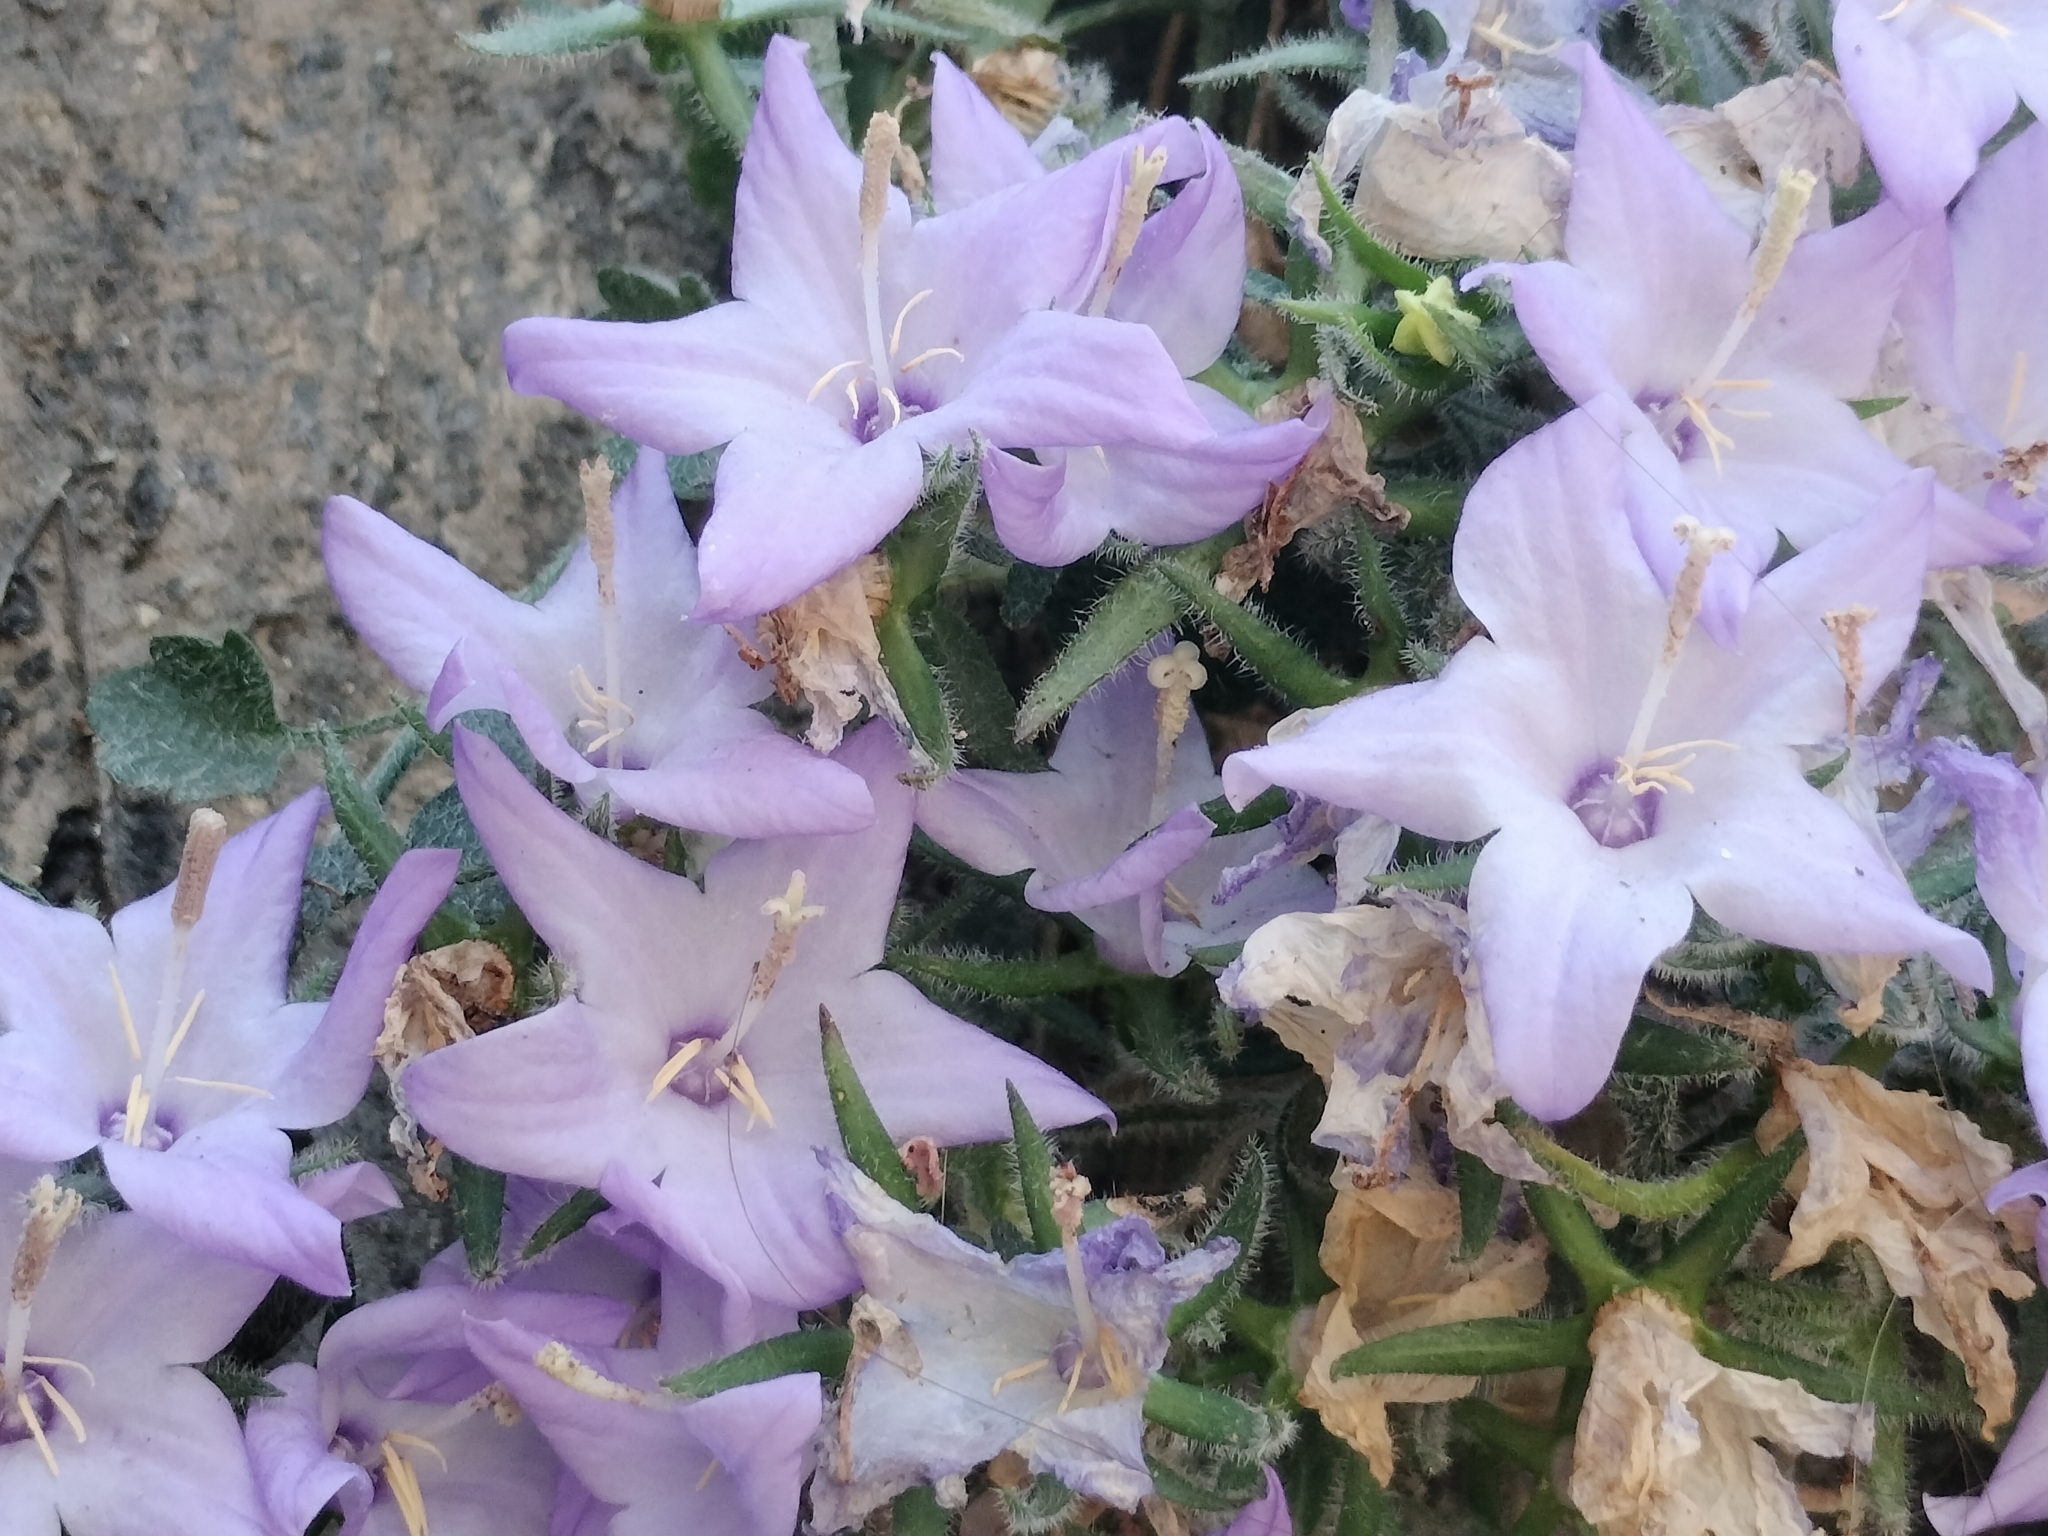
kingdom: Plantae
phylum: Tracheophyta
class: Magnoliopsida
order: Asterales
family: Campanulaceae
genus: Campanula
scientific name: Campanula fragilis
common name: Italian bellflower
